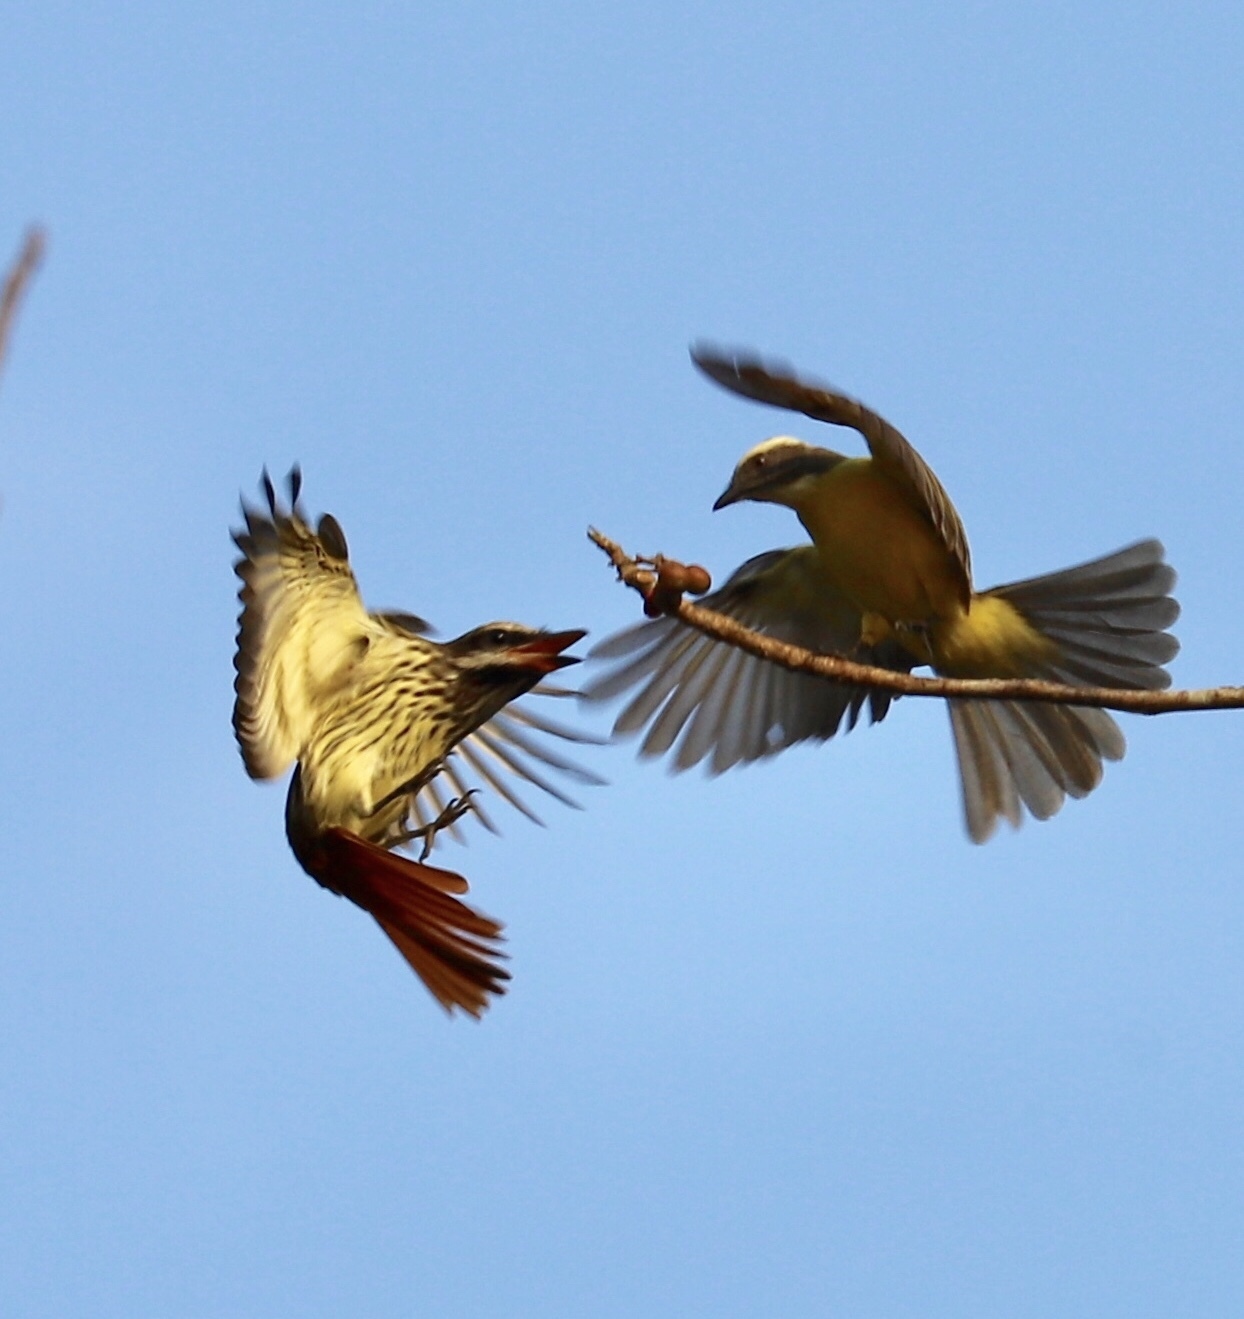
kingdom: Animalia
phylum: Chordata
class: Aves
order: Passeriformes
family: Tyrannidae
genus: Myiodynastes
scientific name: Myiodynastes luteiventris
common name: Sulphur-bellied flycatcher
